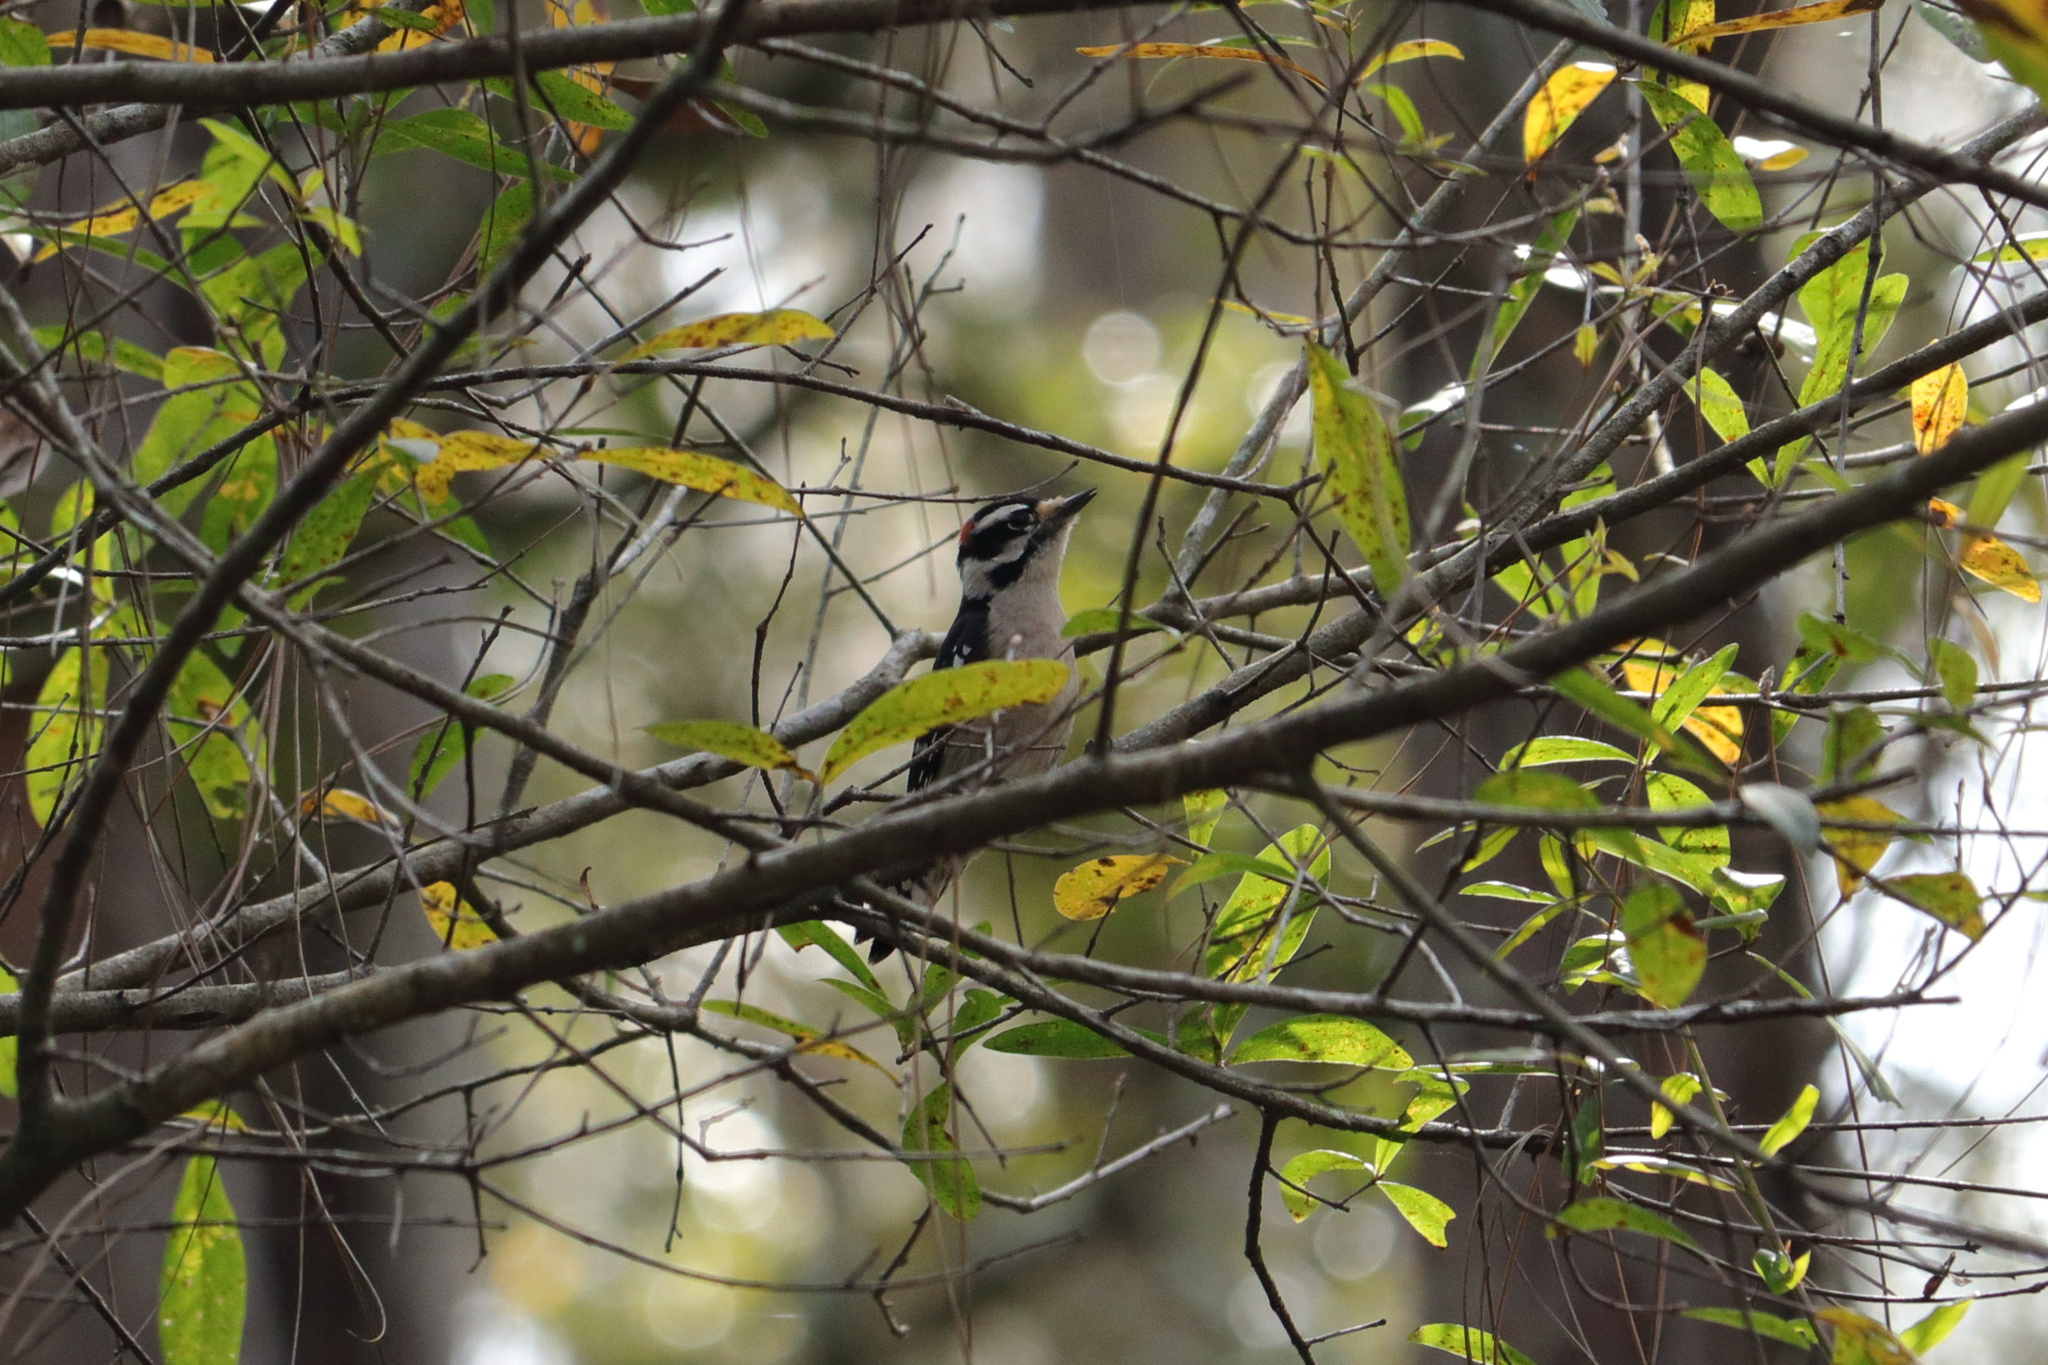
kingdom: Animalia
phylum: Chordata
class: Aves
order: Piciformes
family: Picidae
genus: Dryobates
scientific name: Dryobates pubescens
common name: Downy woodpecker
